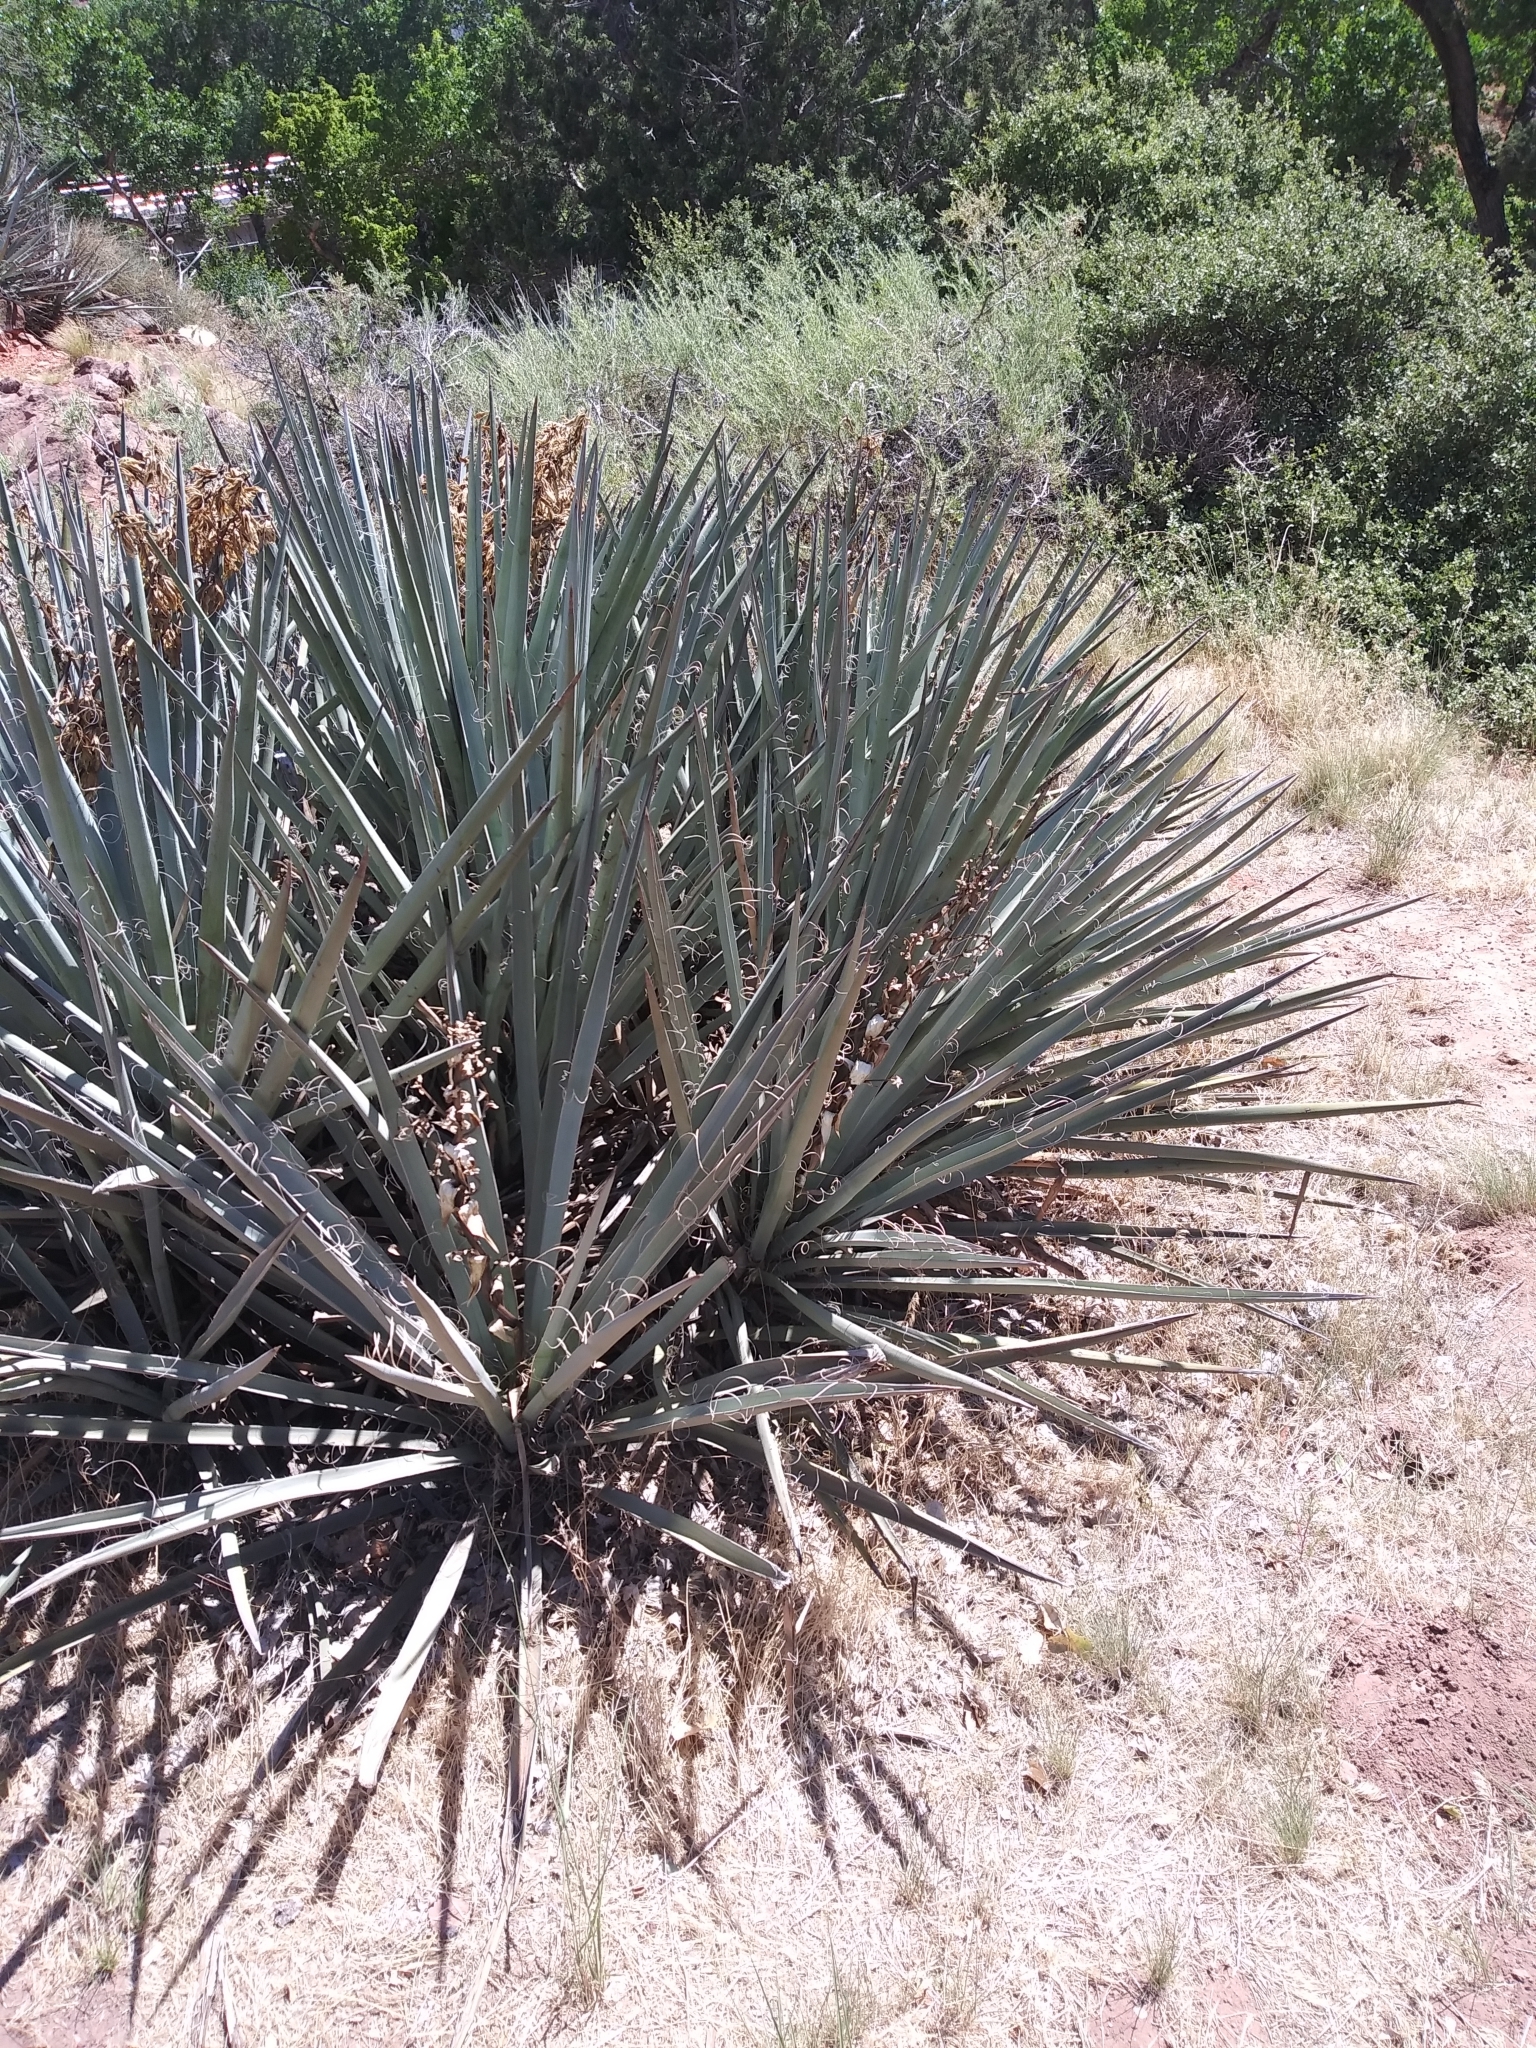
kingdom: Plantae
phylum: Tracheophyta
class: Liliopsida
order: Asparagales
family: Asparagaceae
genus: Yucca
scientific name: Yucca baccata
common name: Banana yucca
